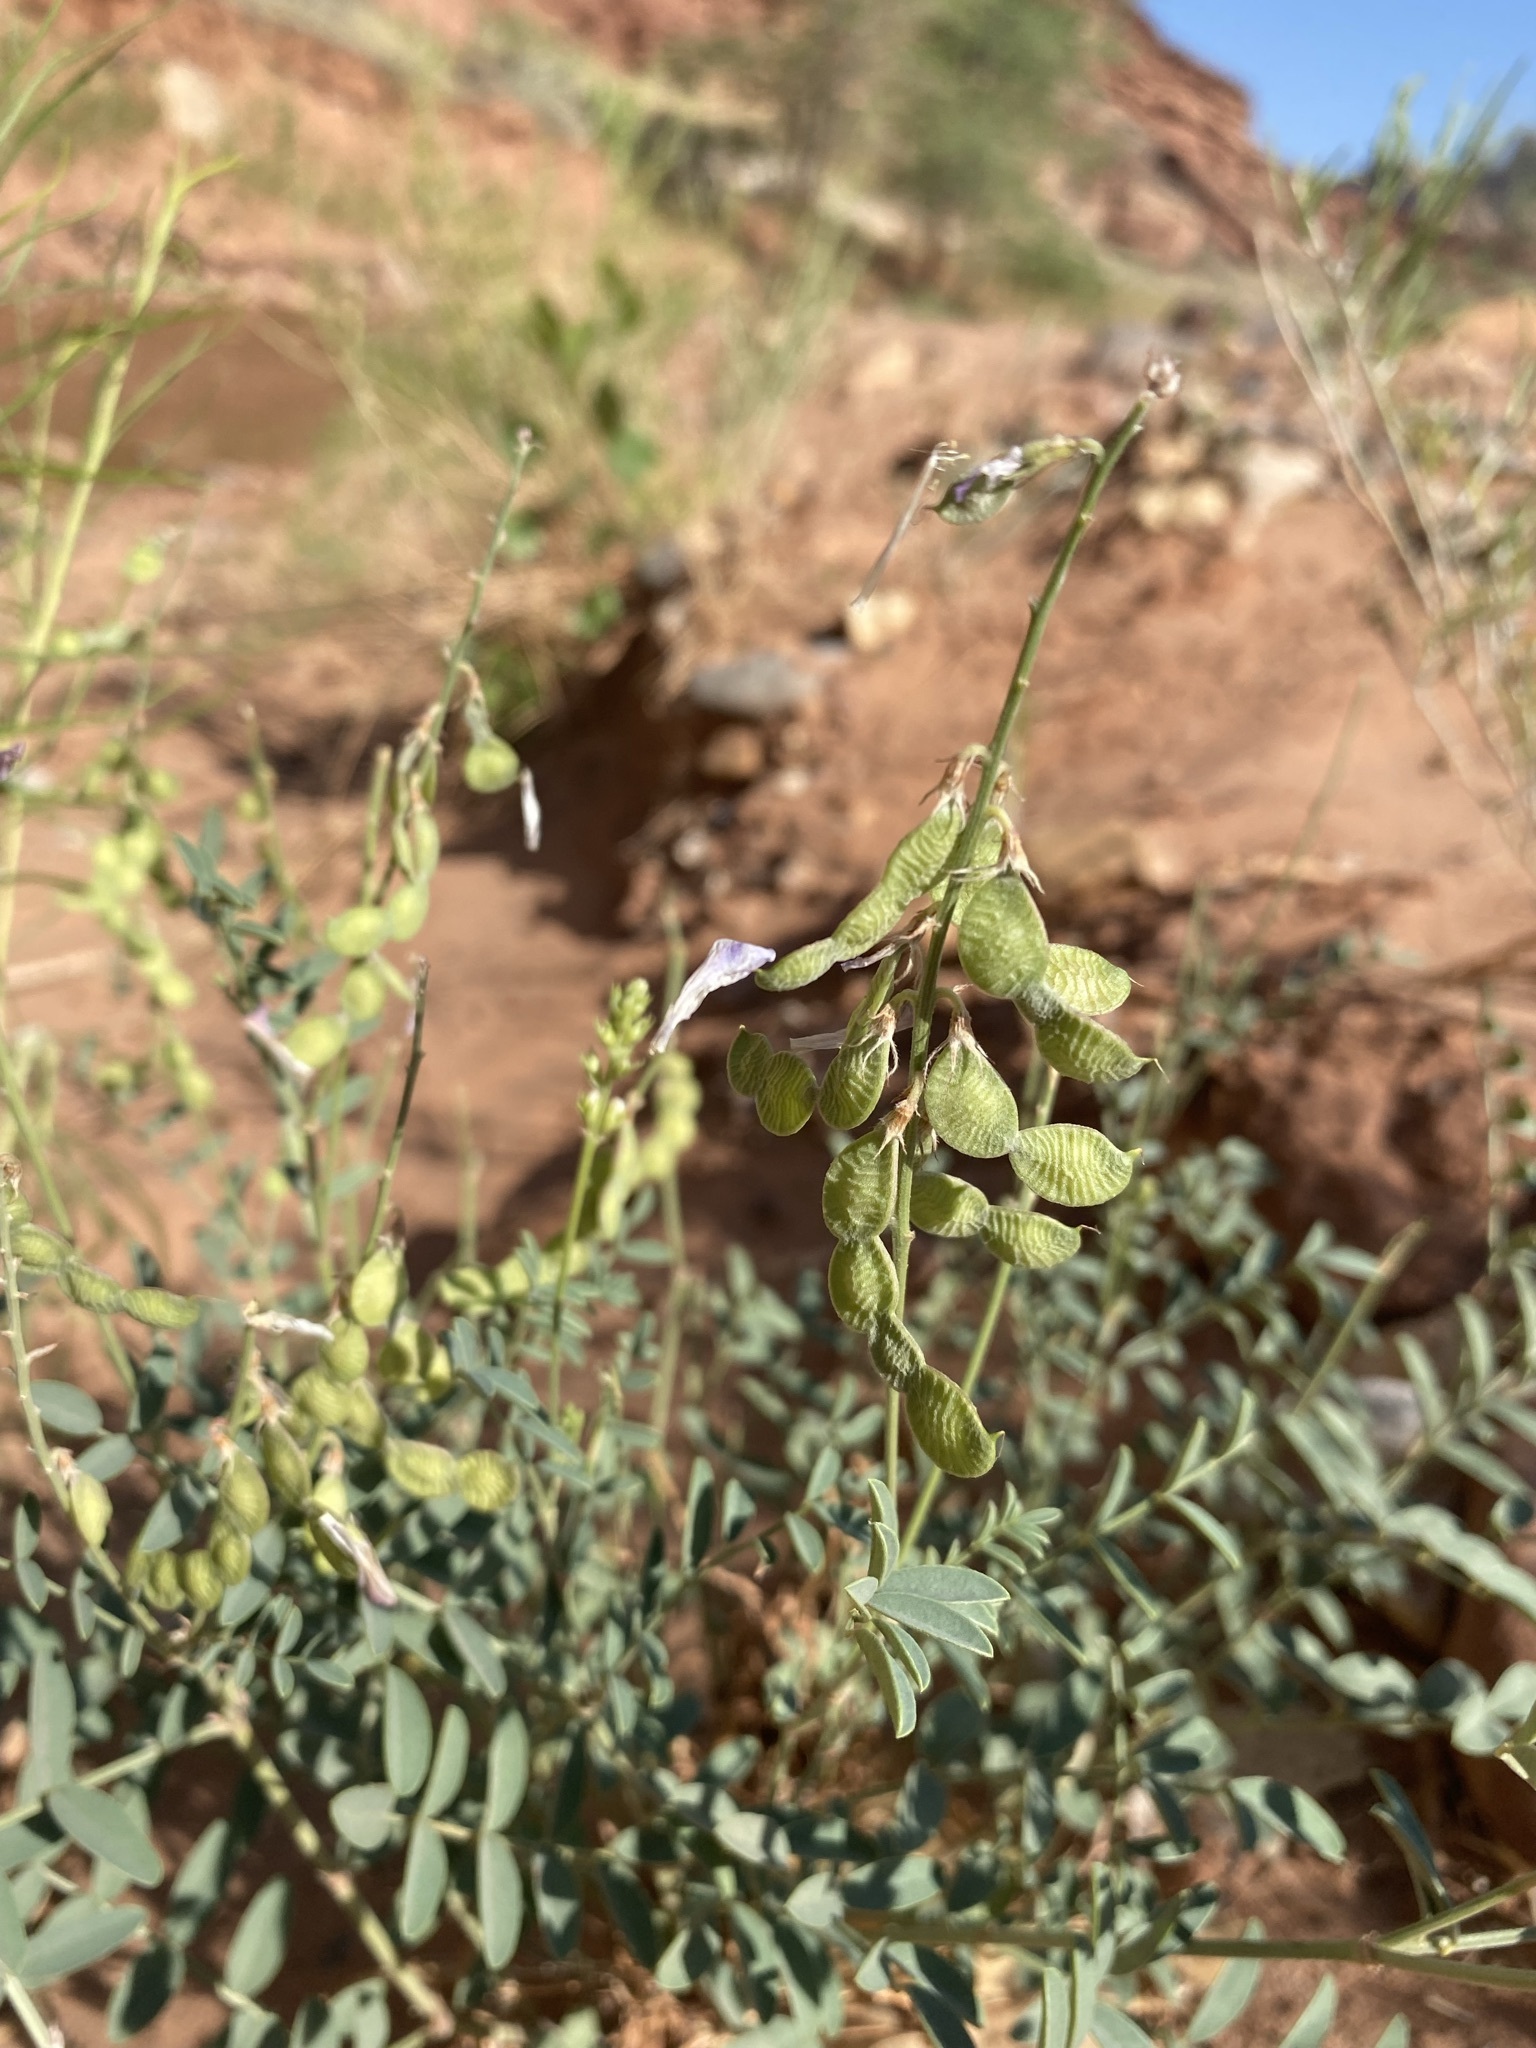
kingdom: Plantae
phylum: Tracheophyta
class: Magnoliopsida
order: Fabales
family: Fabaceae
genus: Hedysarum
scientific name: Hedysarum boreale
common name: Northern sweet-vetch
